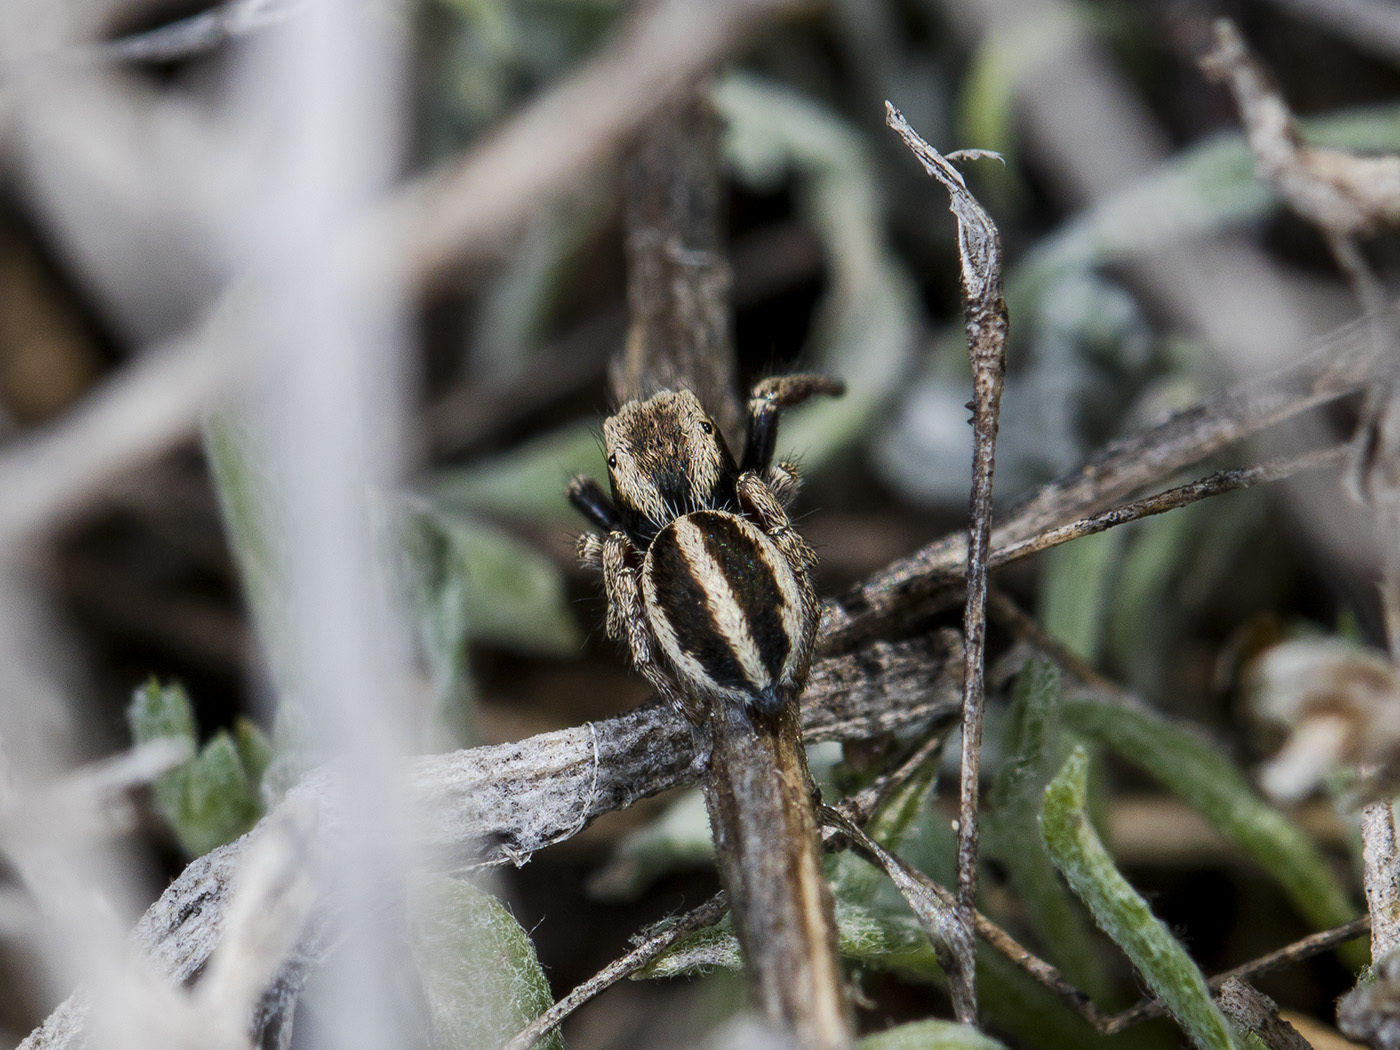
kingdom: Animalia
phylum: Arthropoda
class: Arachnida
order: Araneae
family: Salticidae
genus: Pellenes
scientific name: Pellenes epularis
